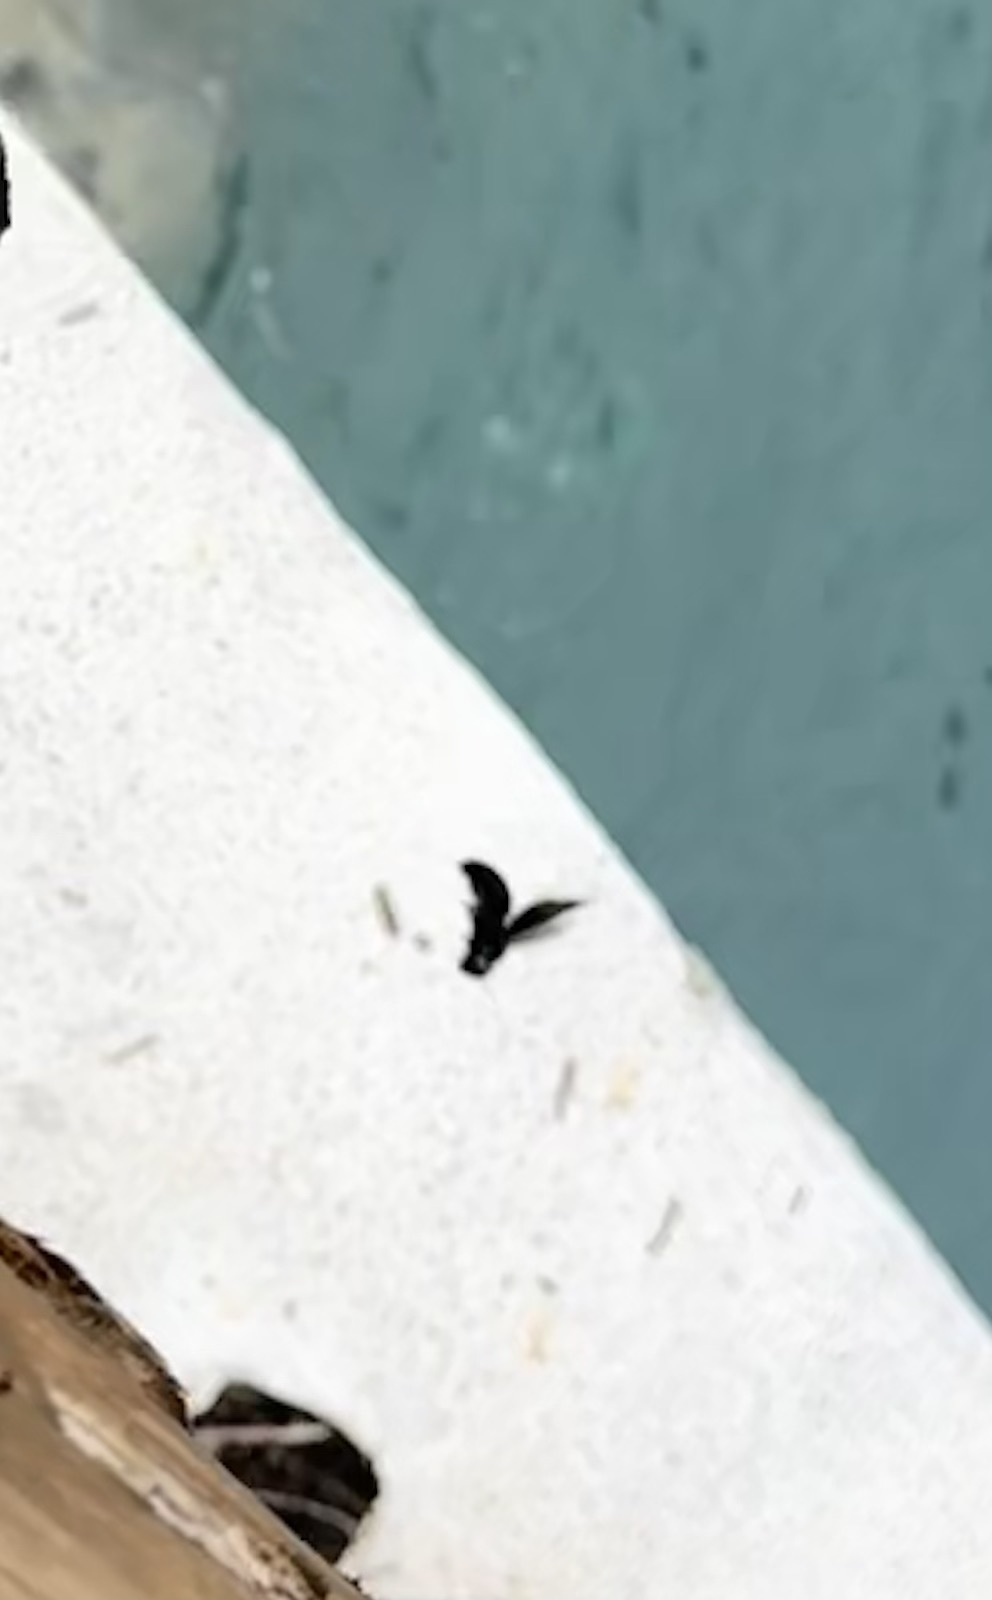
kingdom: Animalia
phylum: Arthropoda
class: Insecta
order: Hymenoptera
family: Apidae
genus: Xylocopa
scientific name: Xylocopa fimbriata
